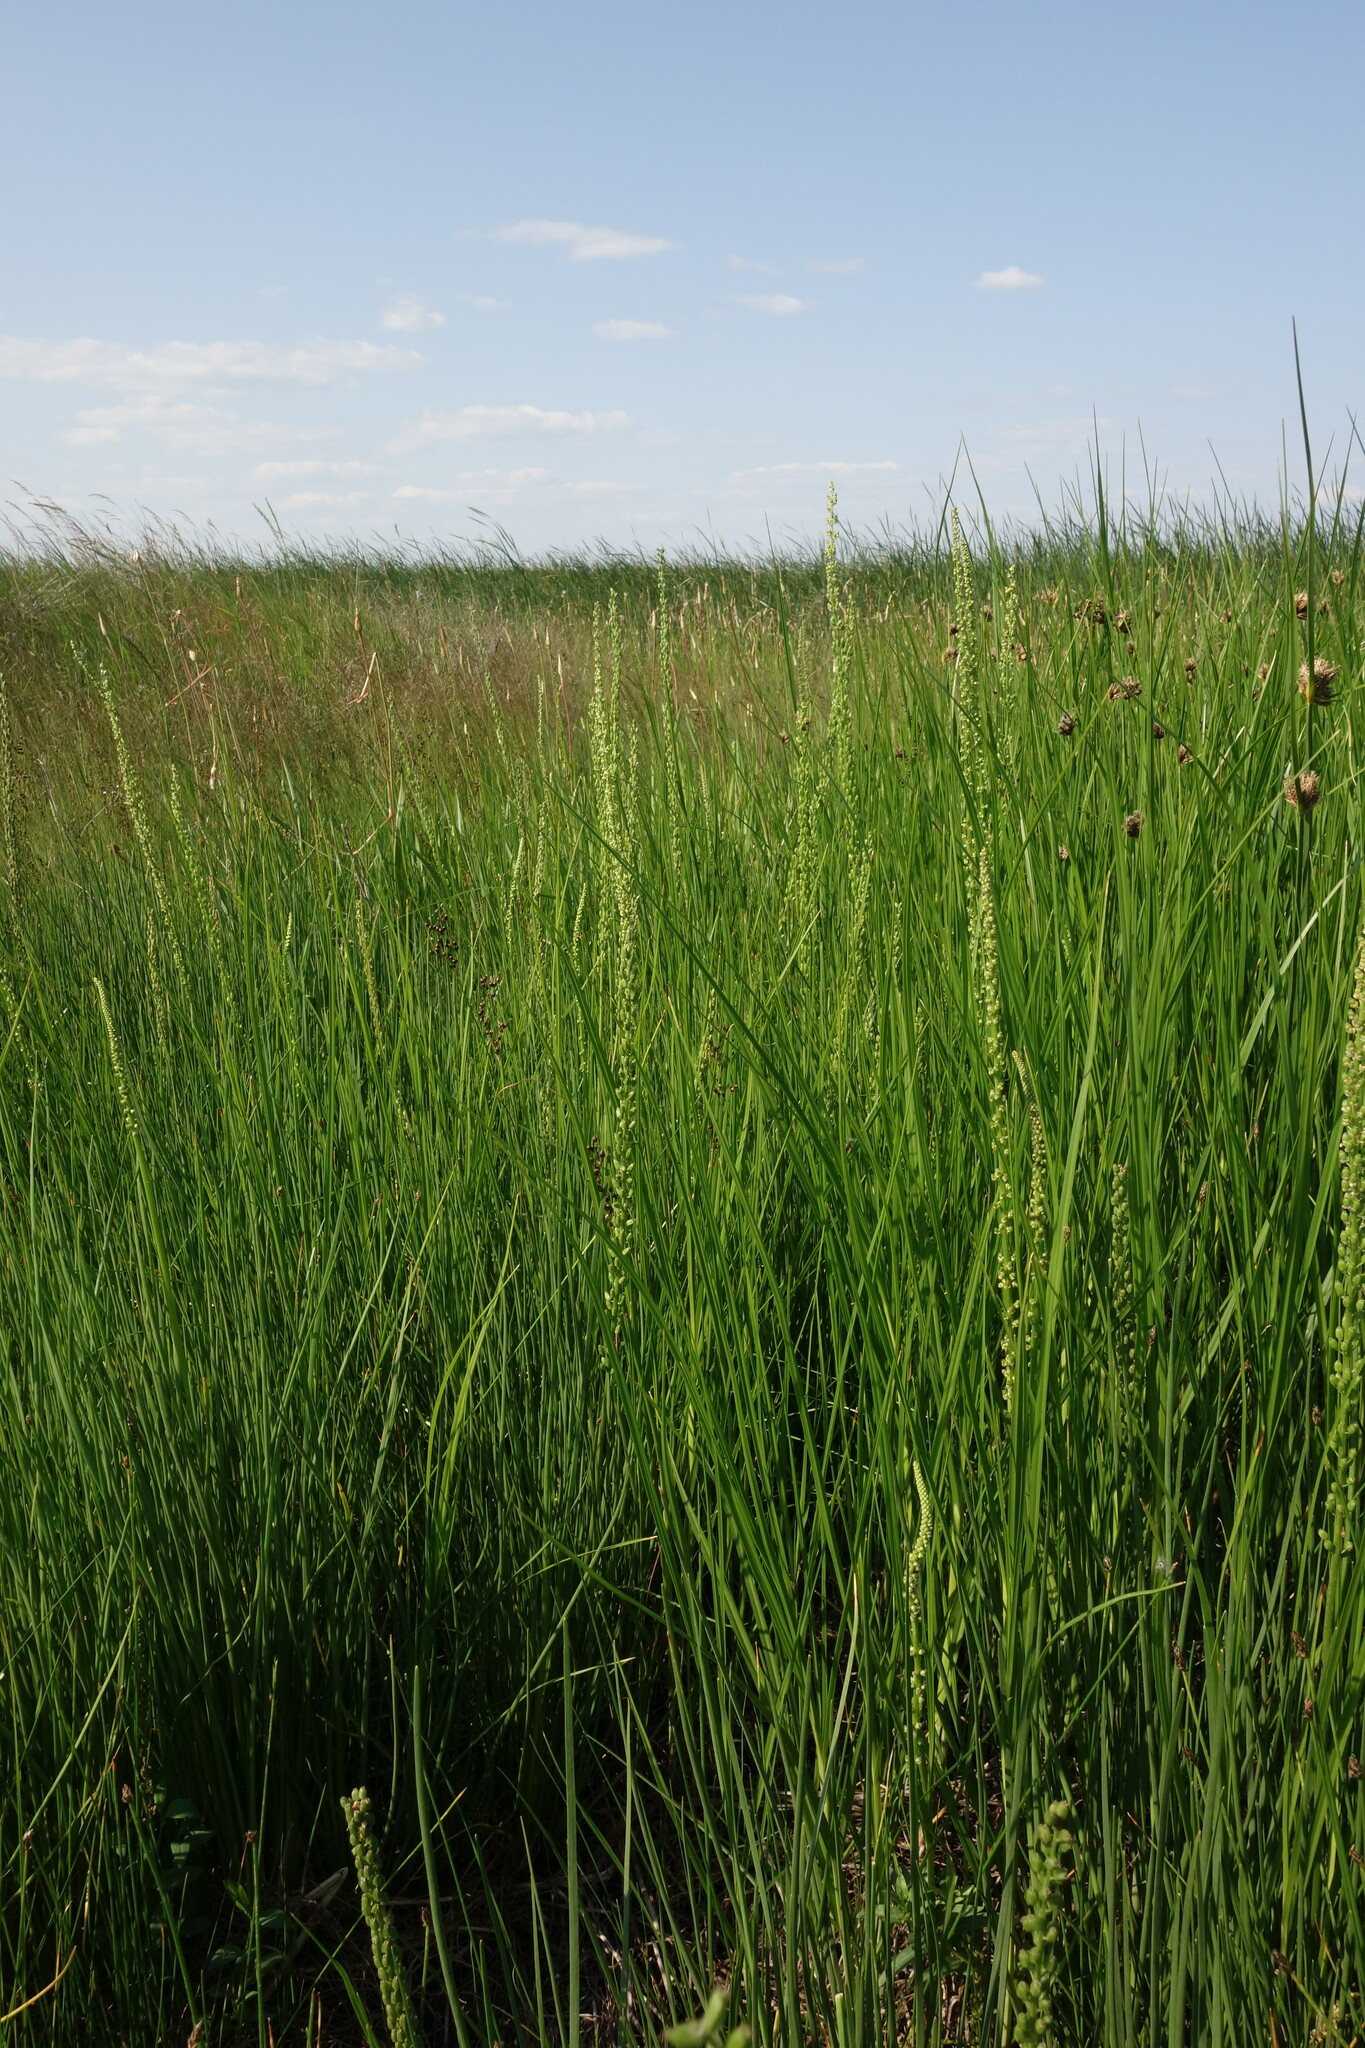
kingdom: Plantae
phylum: Tracheophyta
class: Liliopsida
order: Alismatales
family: Juncaginaceae
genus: Triglochin
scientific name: Triglochin maritima
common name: Sea arrowgrass
